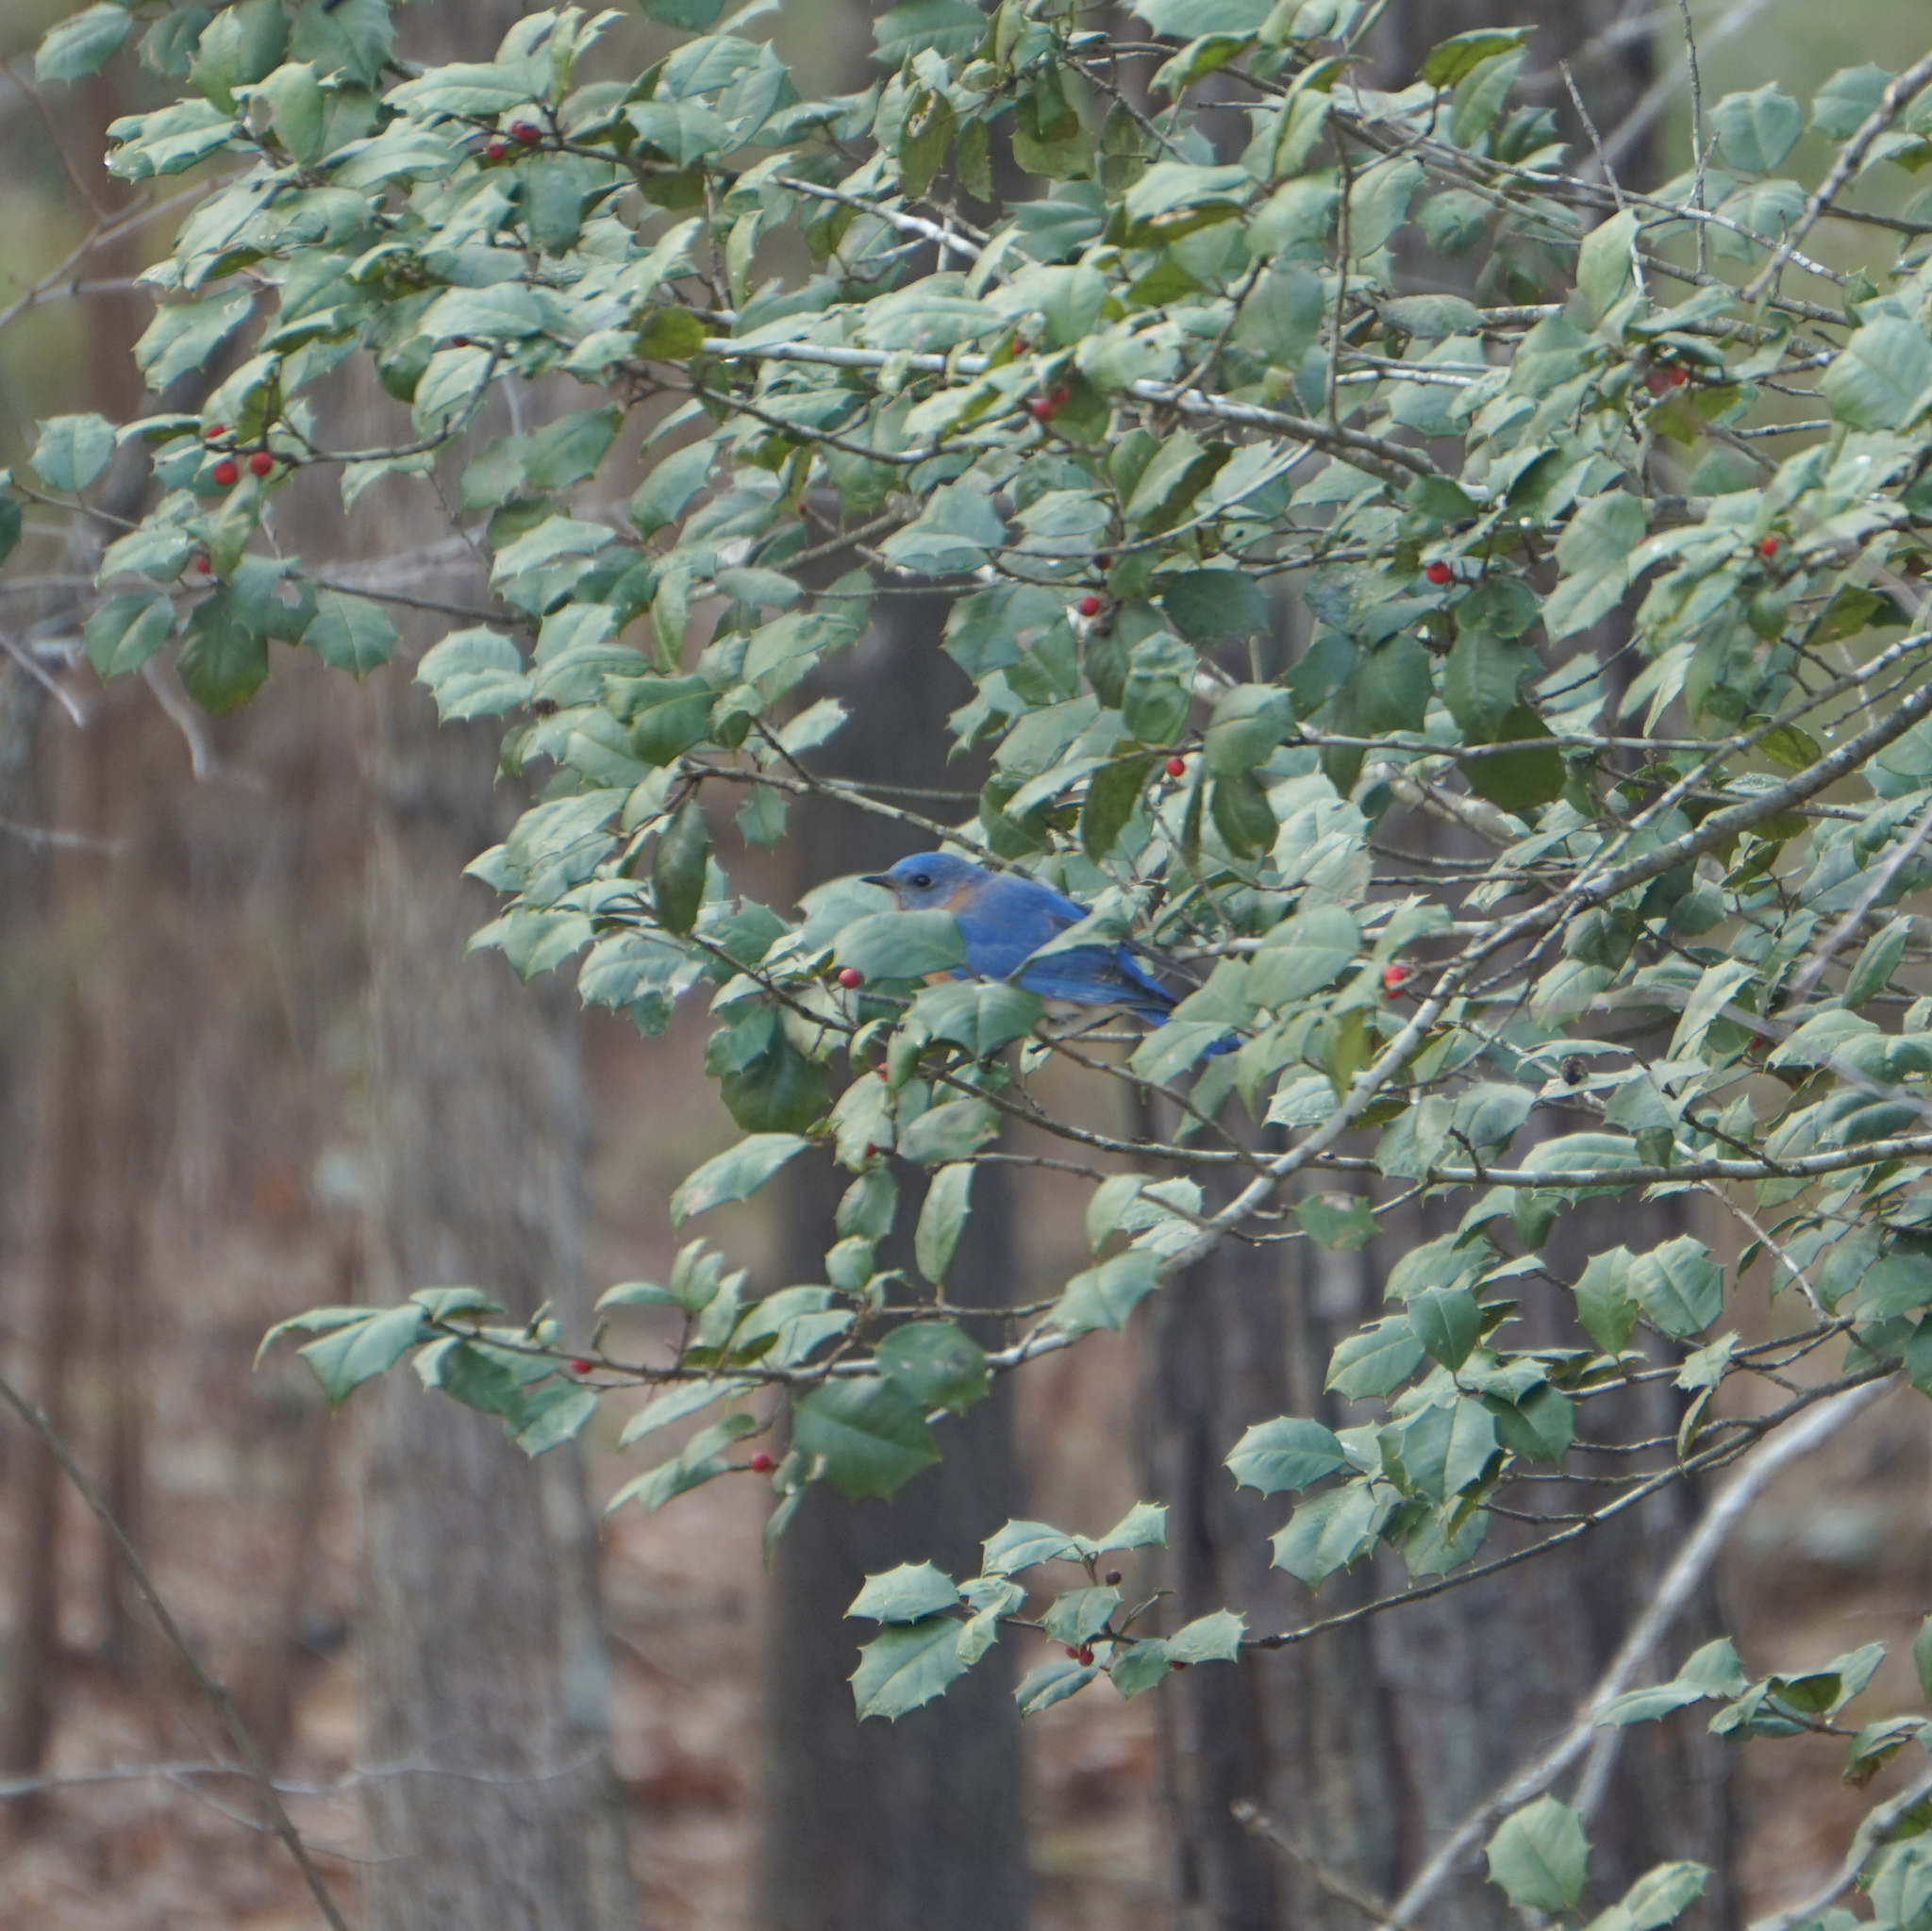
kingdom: Animalia
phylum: Chordata
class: Aves
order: Passeriformes
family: Turdidae
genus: Sialia
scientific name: Sialia sialis
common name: Eastern bluebird
